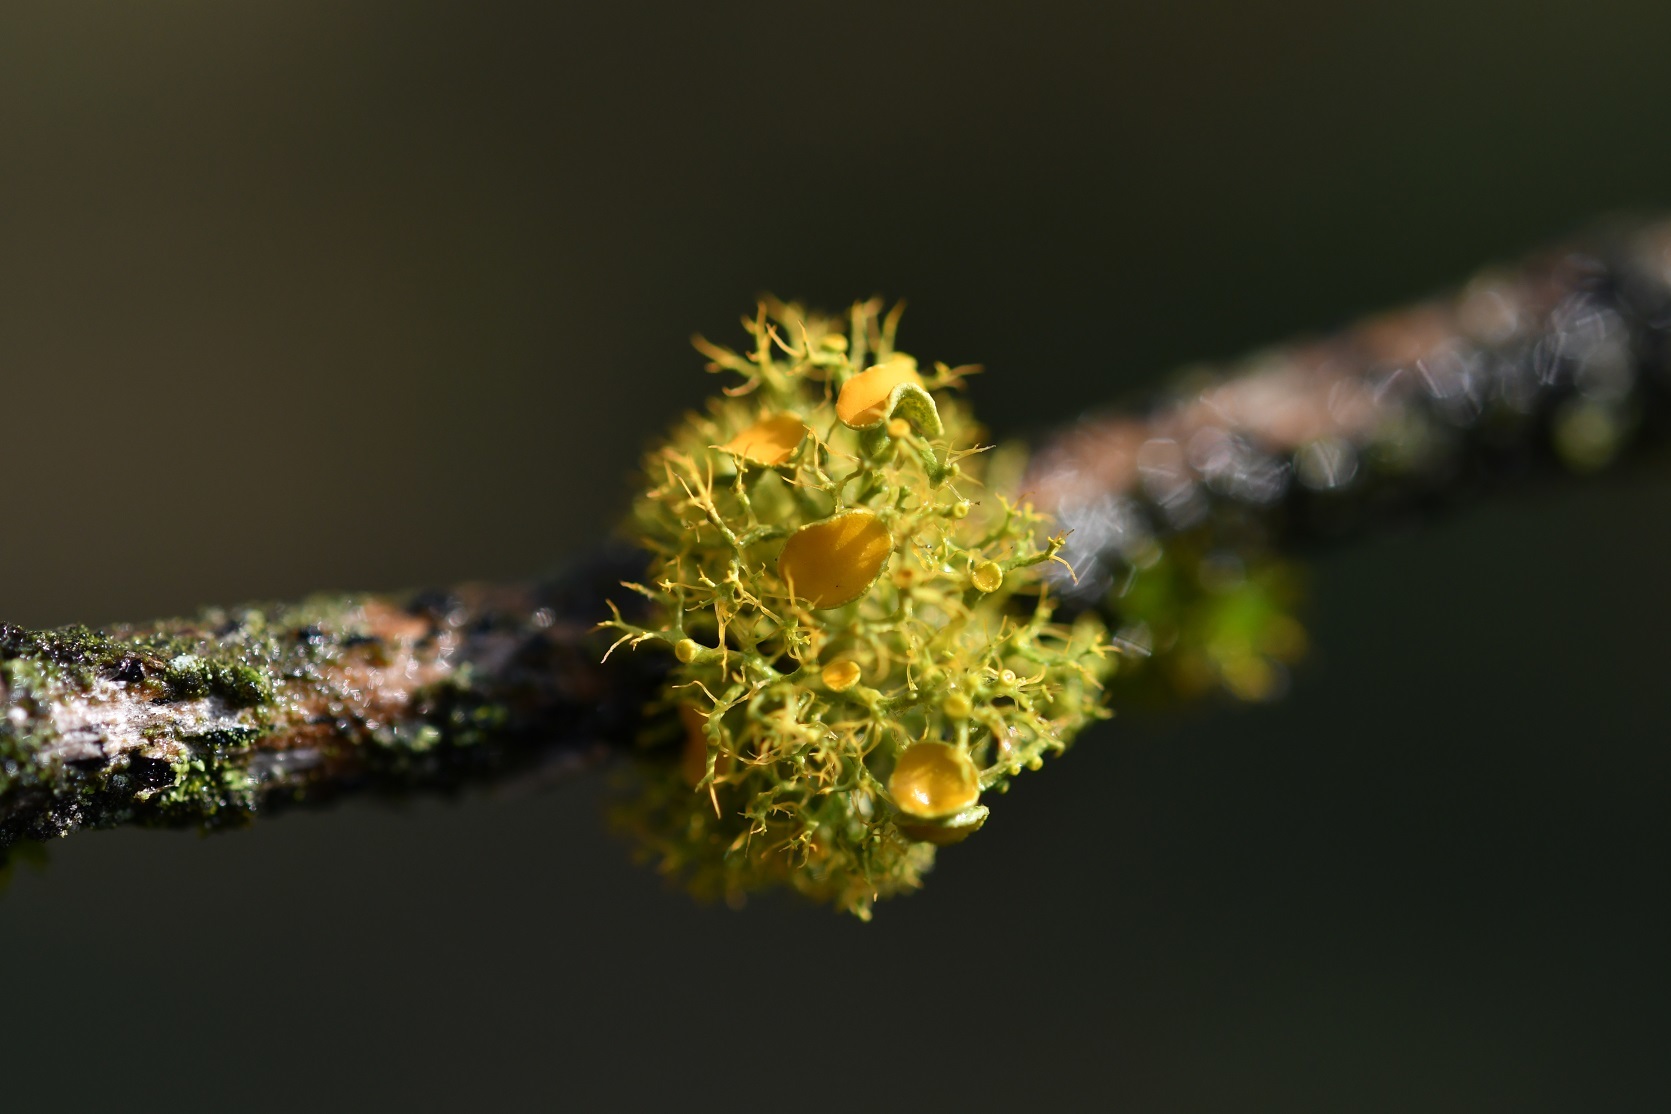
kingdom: Fungi
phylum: Ascomycota
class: Lecanoromycetes
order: Teloschistales
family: Teloschistaceae
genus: Teloschistes
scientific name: Teloschistes exilis
